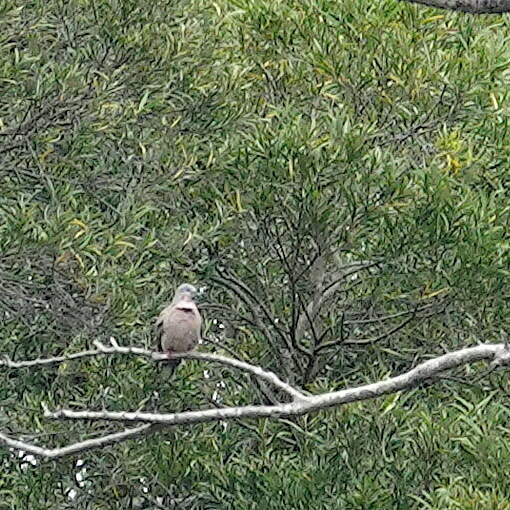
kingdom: Animalia
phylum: Chordata
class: Aves
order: Columbiformes
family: Columbidae
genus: Spilopelia
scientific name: Spilopelia chinensis
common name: Spotted dove
